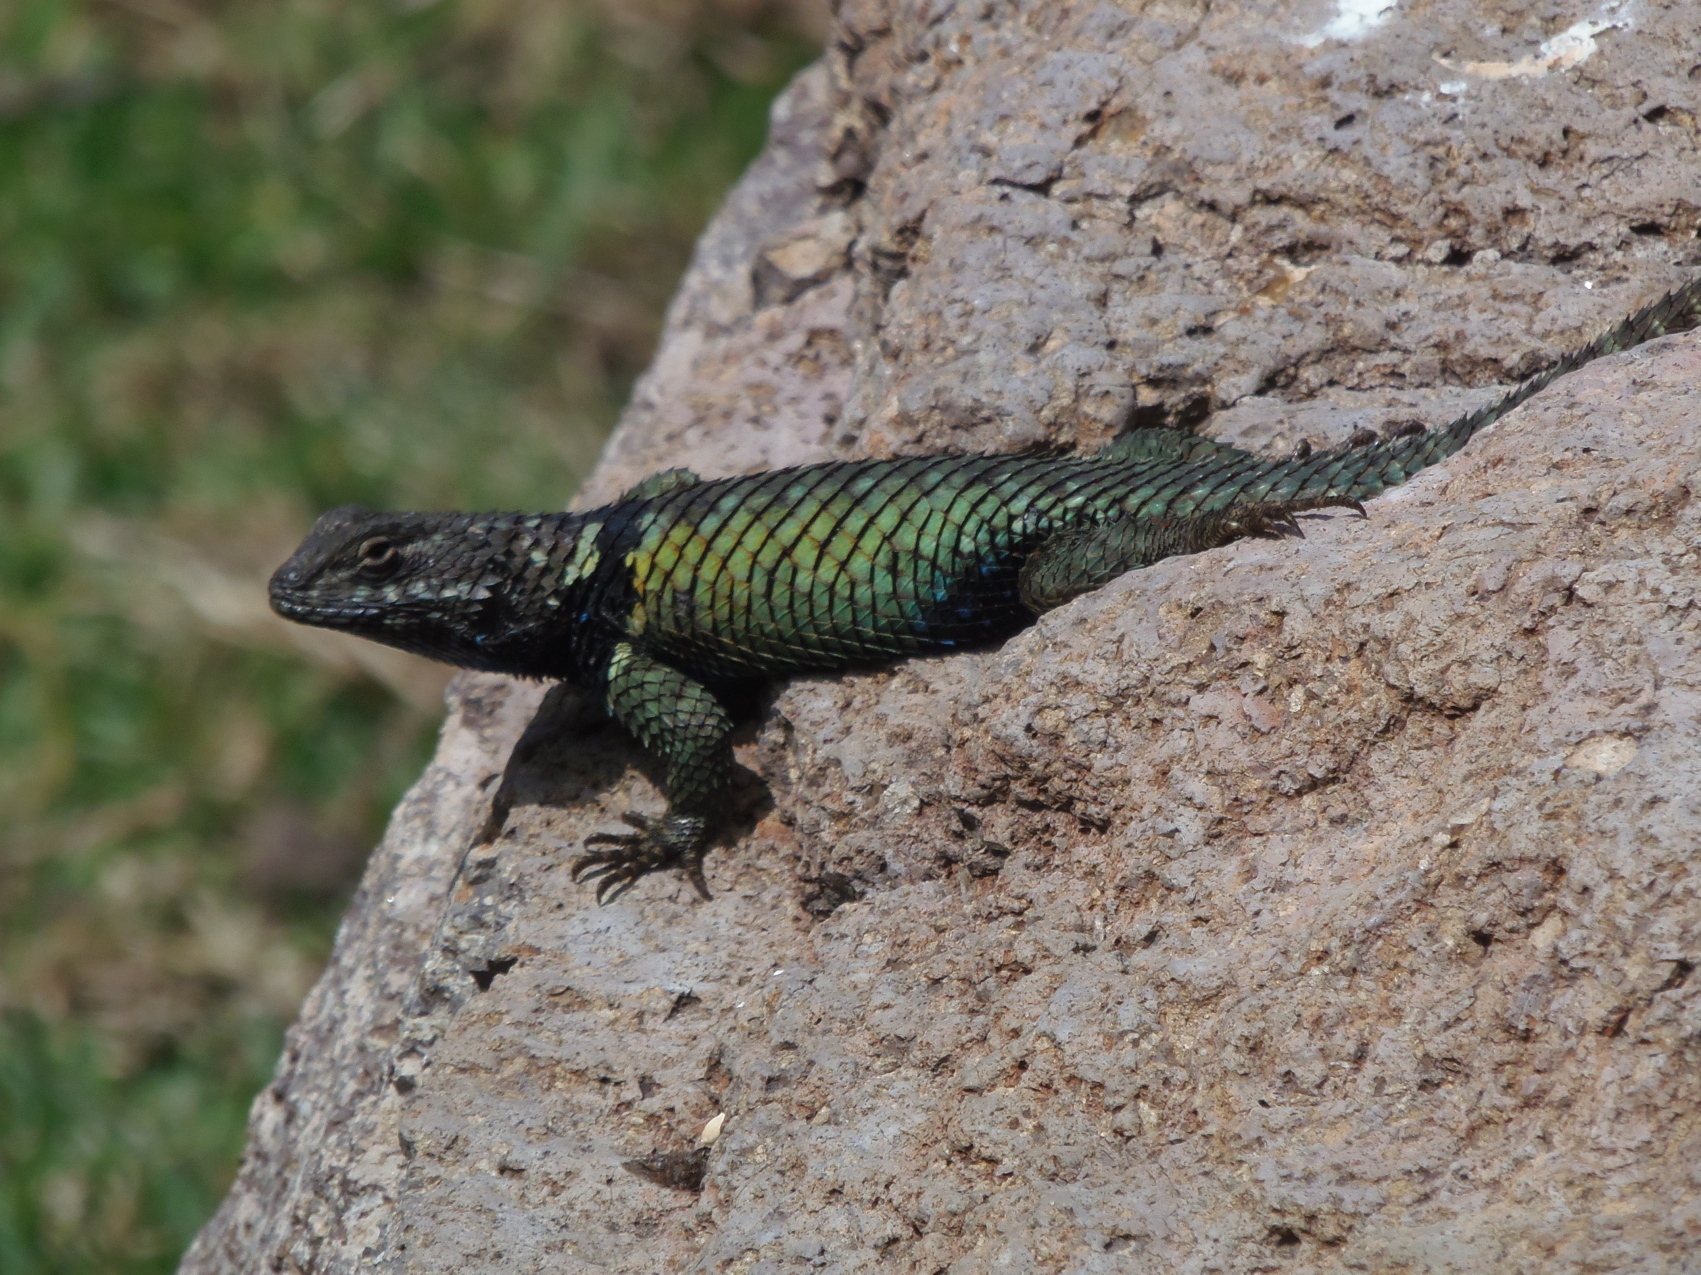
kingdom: Animalia
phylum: Chordata
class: Squamata
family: Phrynosomatidae
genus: Sceloporus
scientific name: Sceloporus torquatus
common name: Central plateau torquate lizard [melanogaster]
